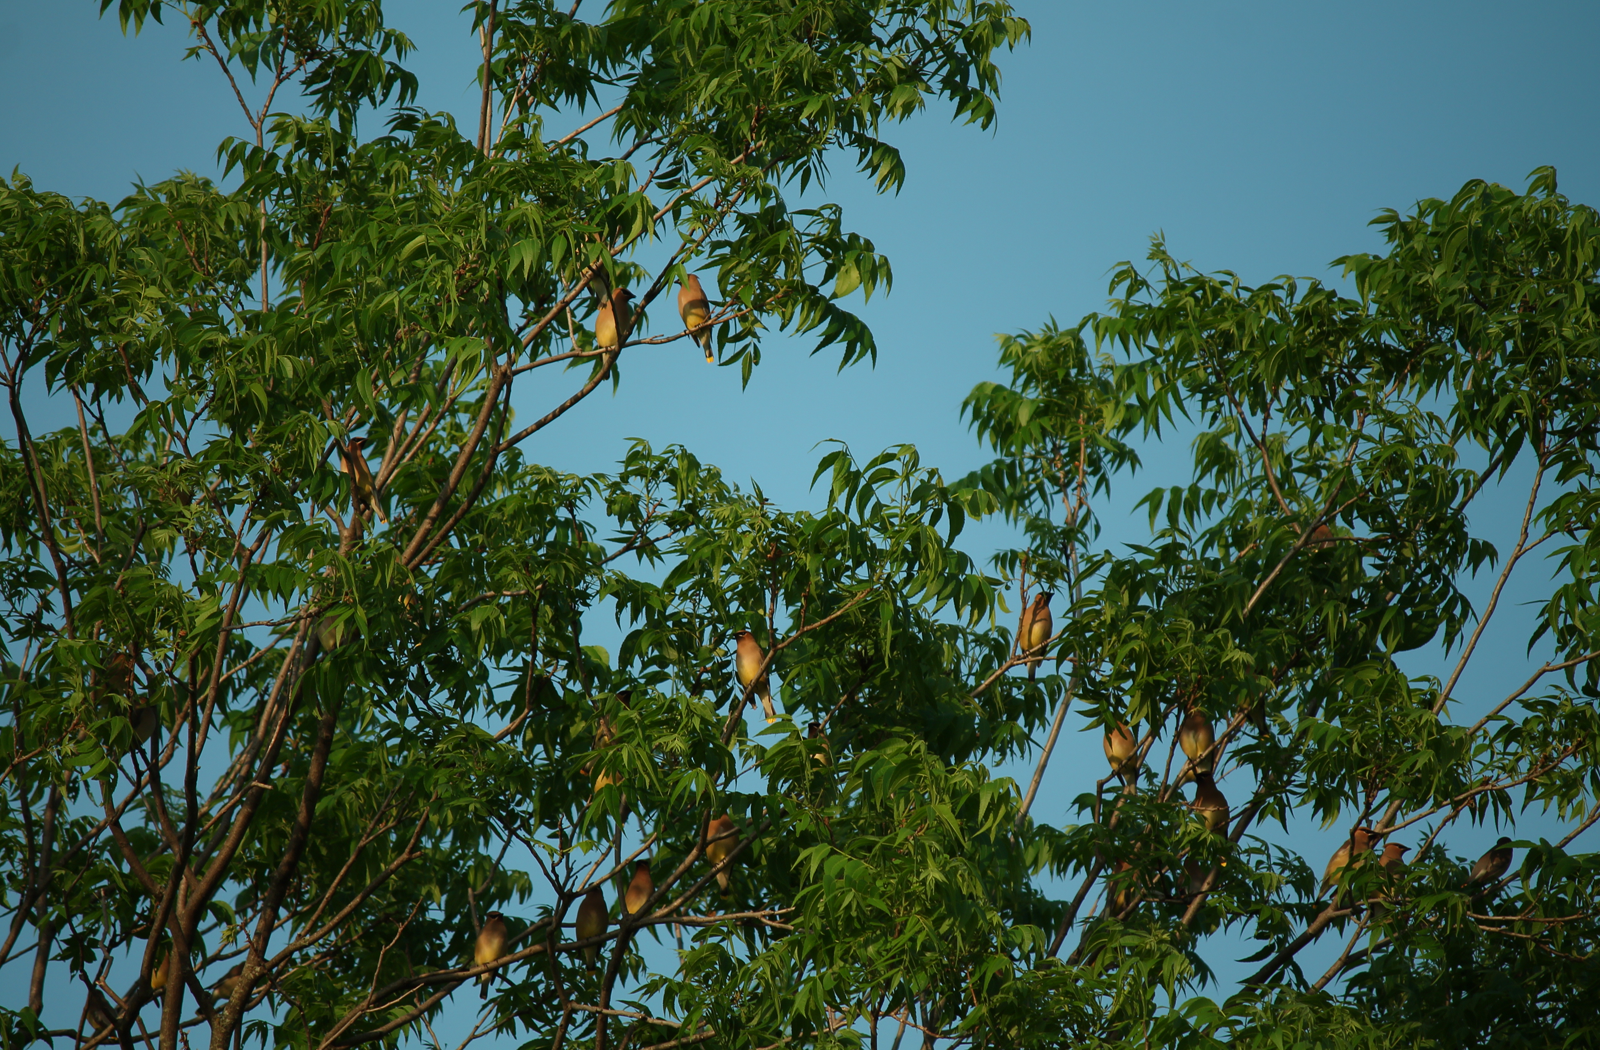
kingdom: Animalia
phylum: Chordata
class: Aves
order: Passeriformes
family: Bombycillidae
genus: Bombycilla
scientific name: Bombycilla cedrorum
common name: Cedar waxwing
